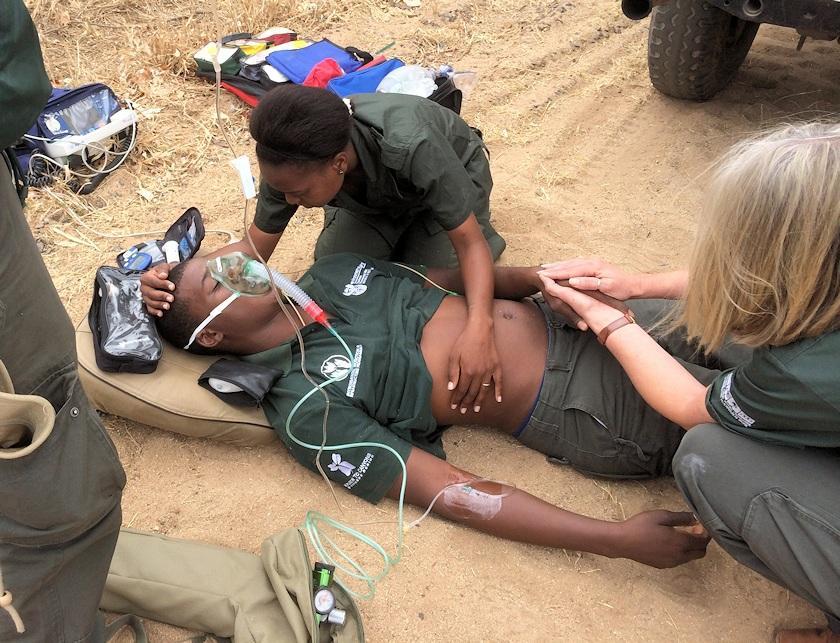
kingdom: Animalia
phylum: Chordata
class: Squamata
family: Elapidae
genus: Dendroaspis
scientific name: Dendroaspis polylepis
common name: Black mamba
